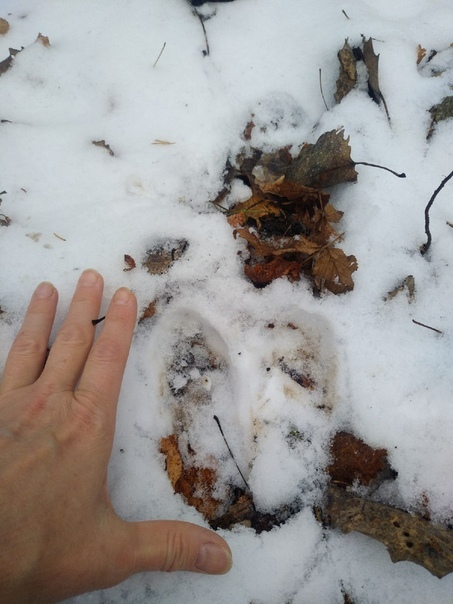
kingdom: Animalia
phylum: Chordata
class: Mammalia
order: Artiodactyla
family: Cervidae
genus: Alces
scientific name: Alces alces
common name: Moose
